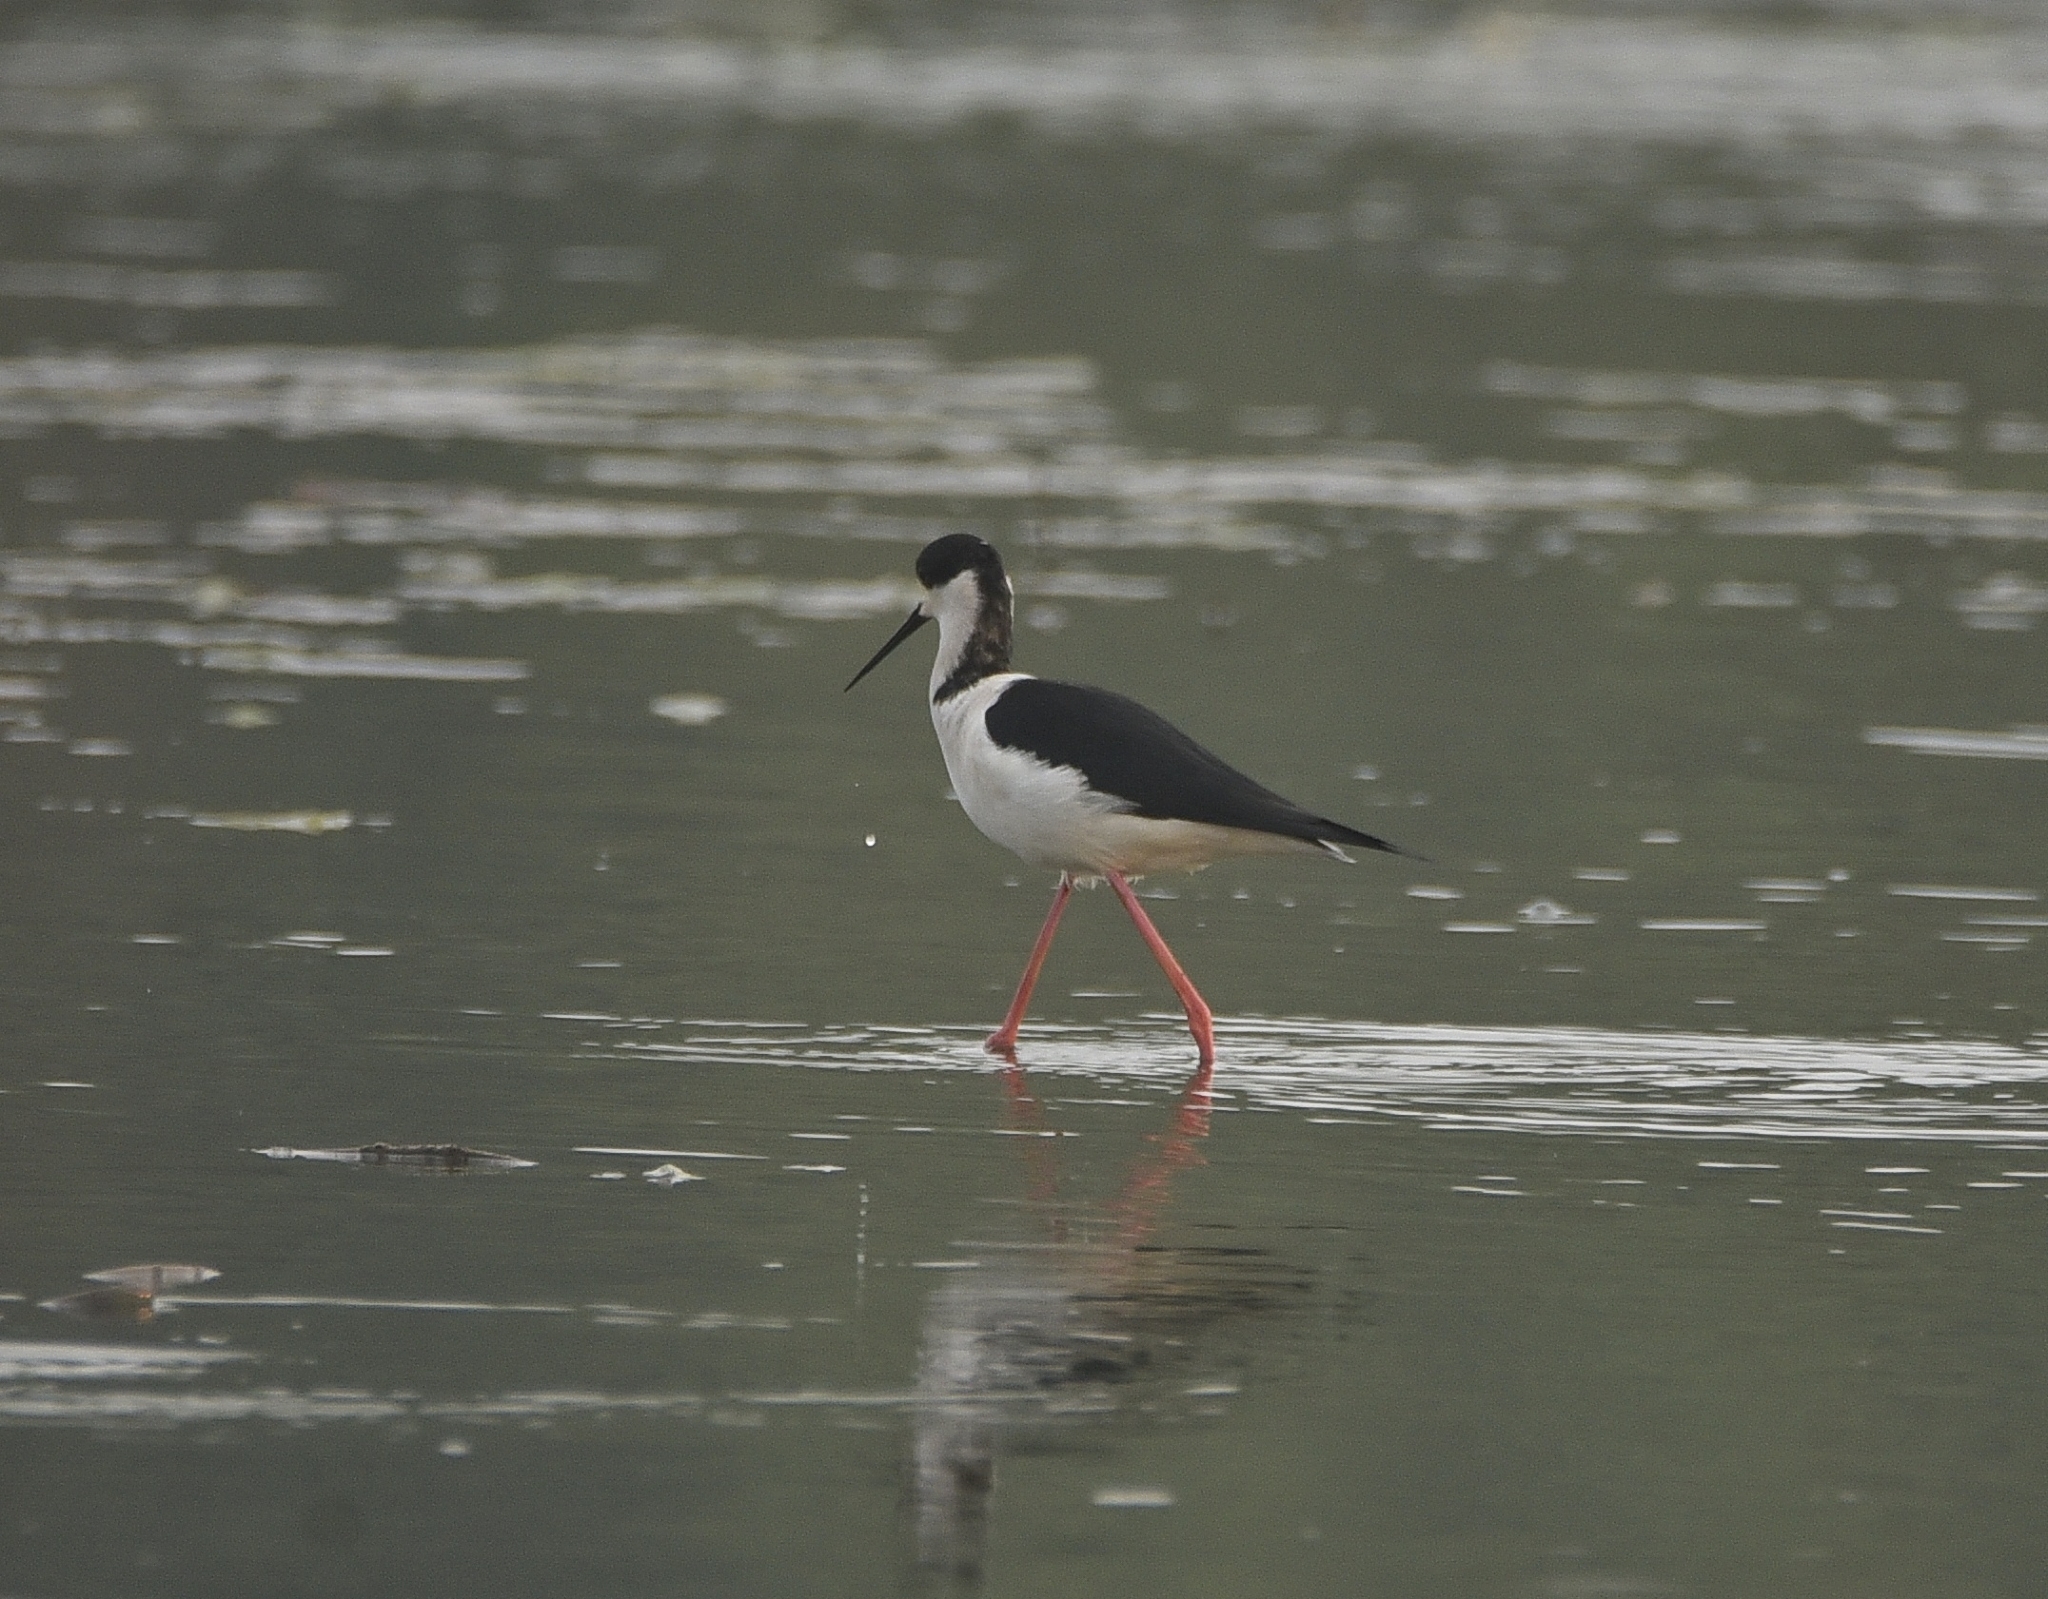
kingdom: Animalia
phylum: Chordata
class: Aves
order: Charadriiformes
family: Recurvirostridae
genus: Himantopus
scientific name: Himantopus himantopus
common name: Black-winged stilt
